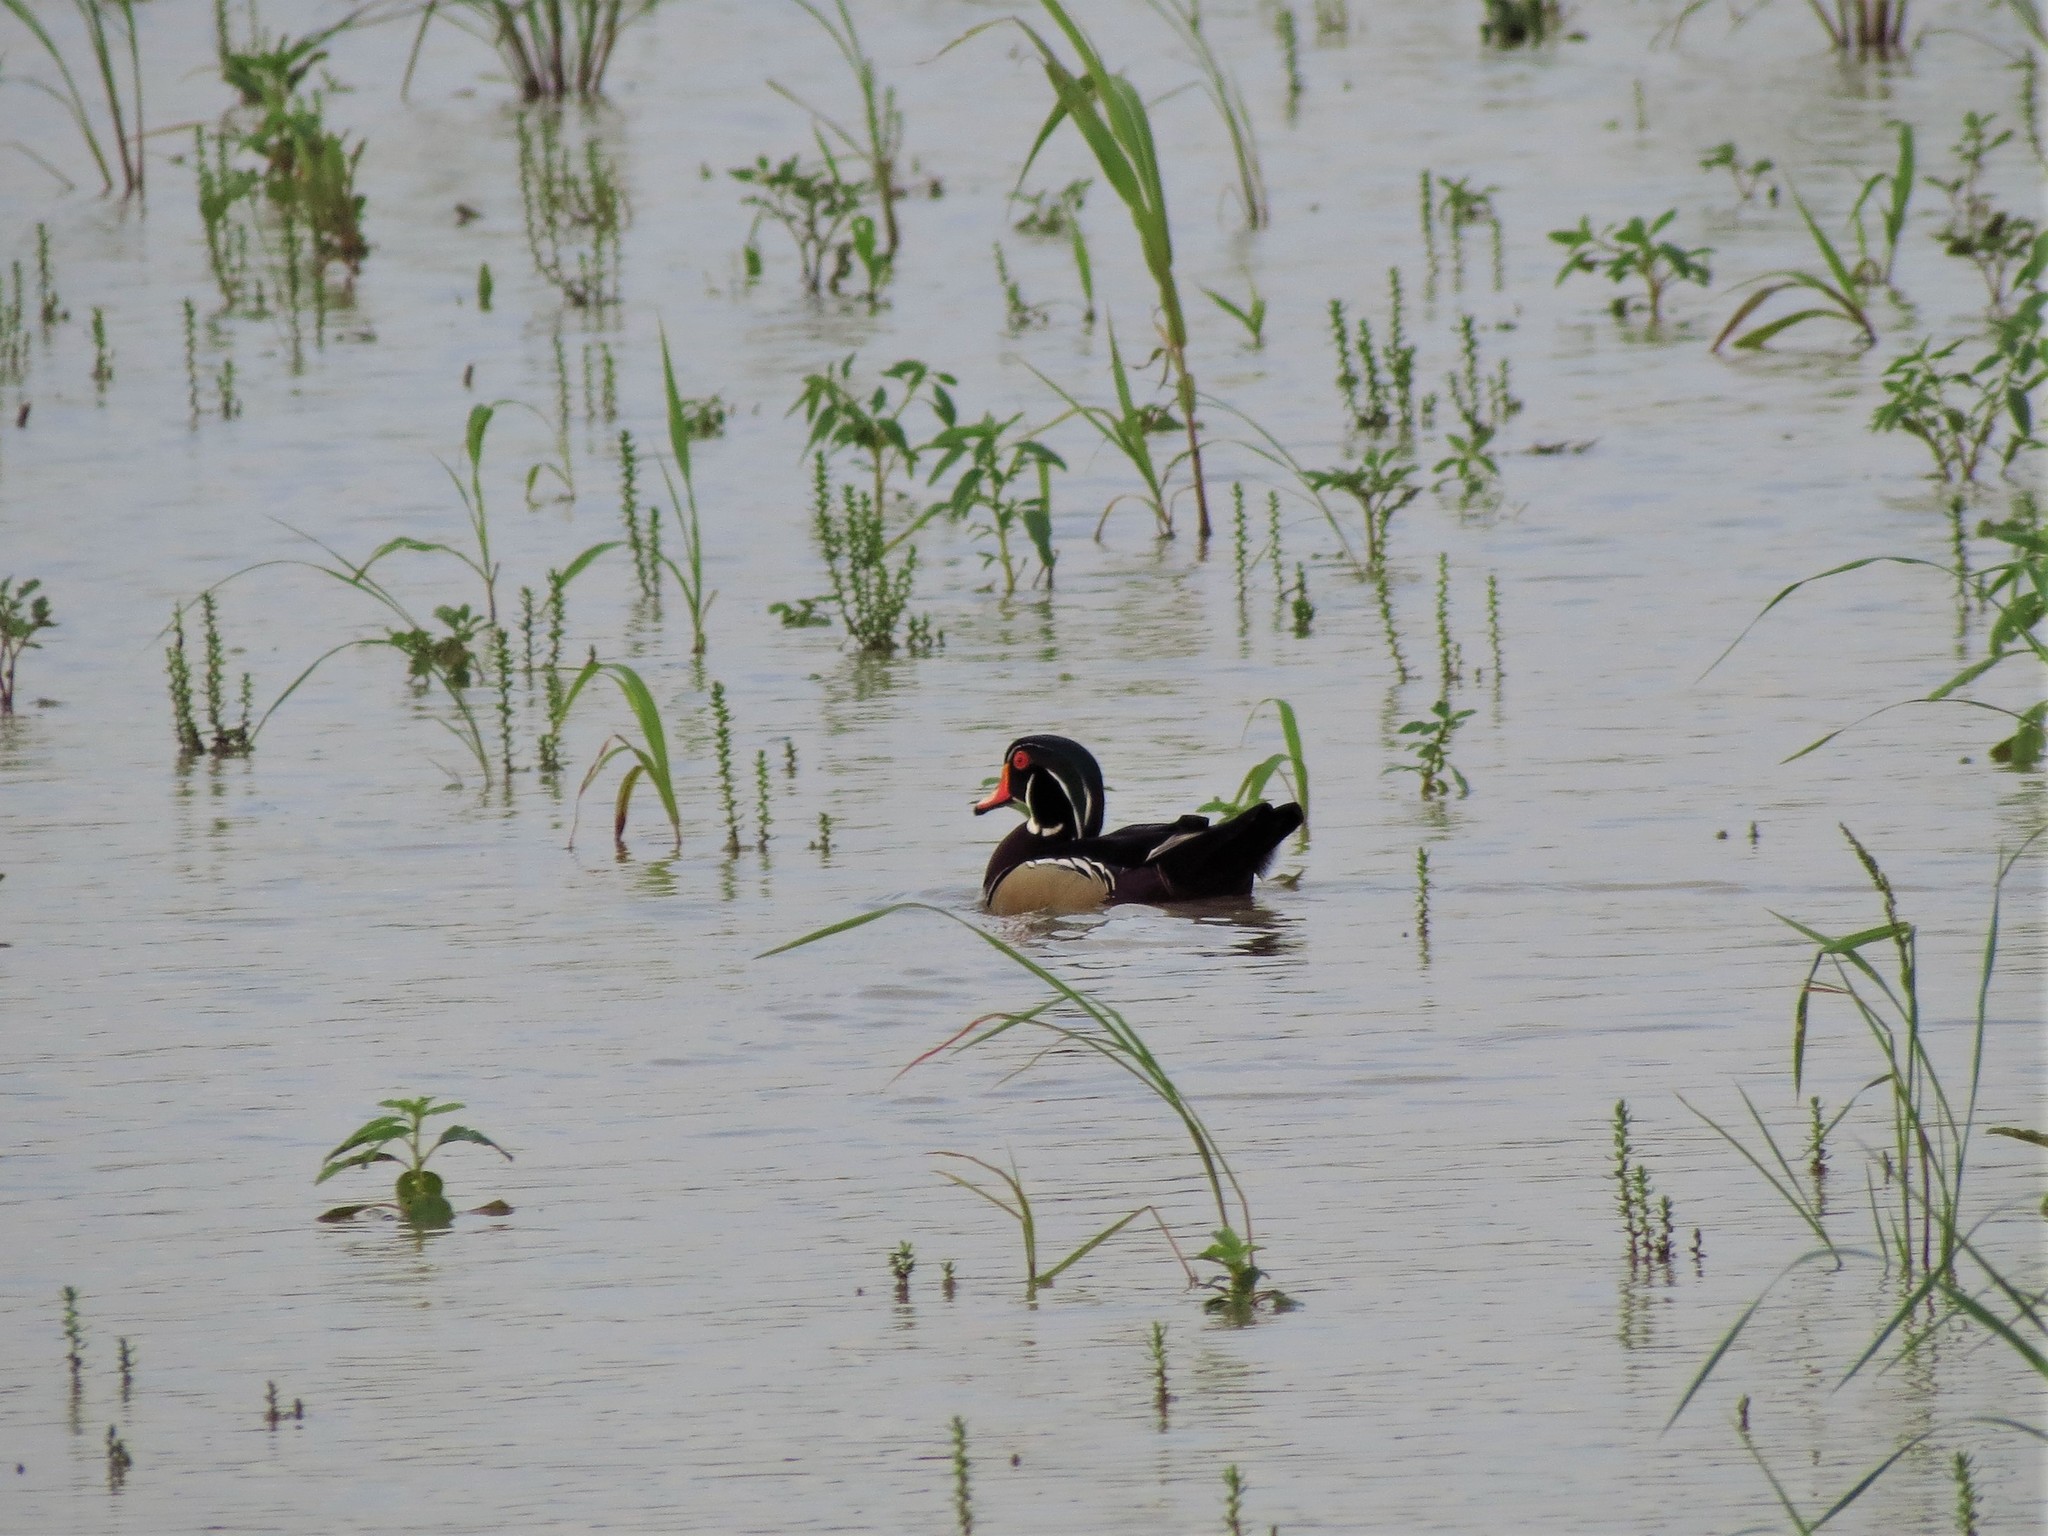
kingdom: Animalia
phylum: Chordata
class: Aves
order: Anseriformes
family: Anatidae
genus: Aix
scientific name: Aix sponsa
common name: Wood duck
